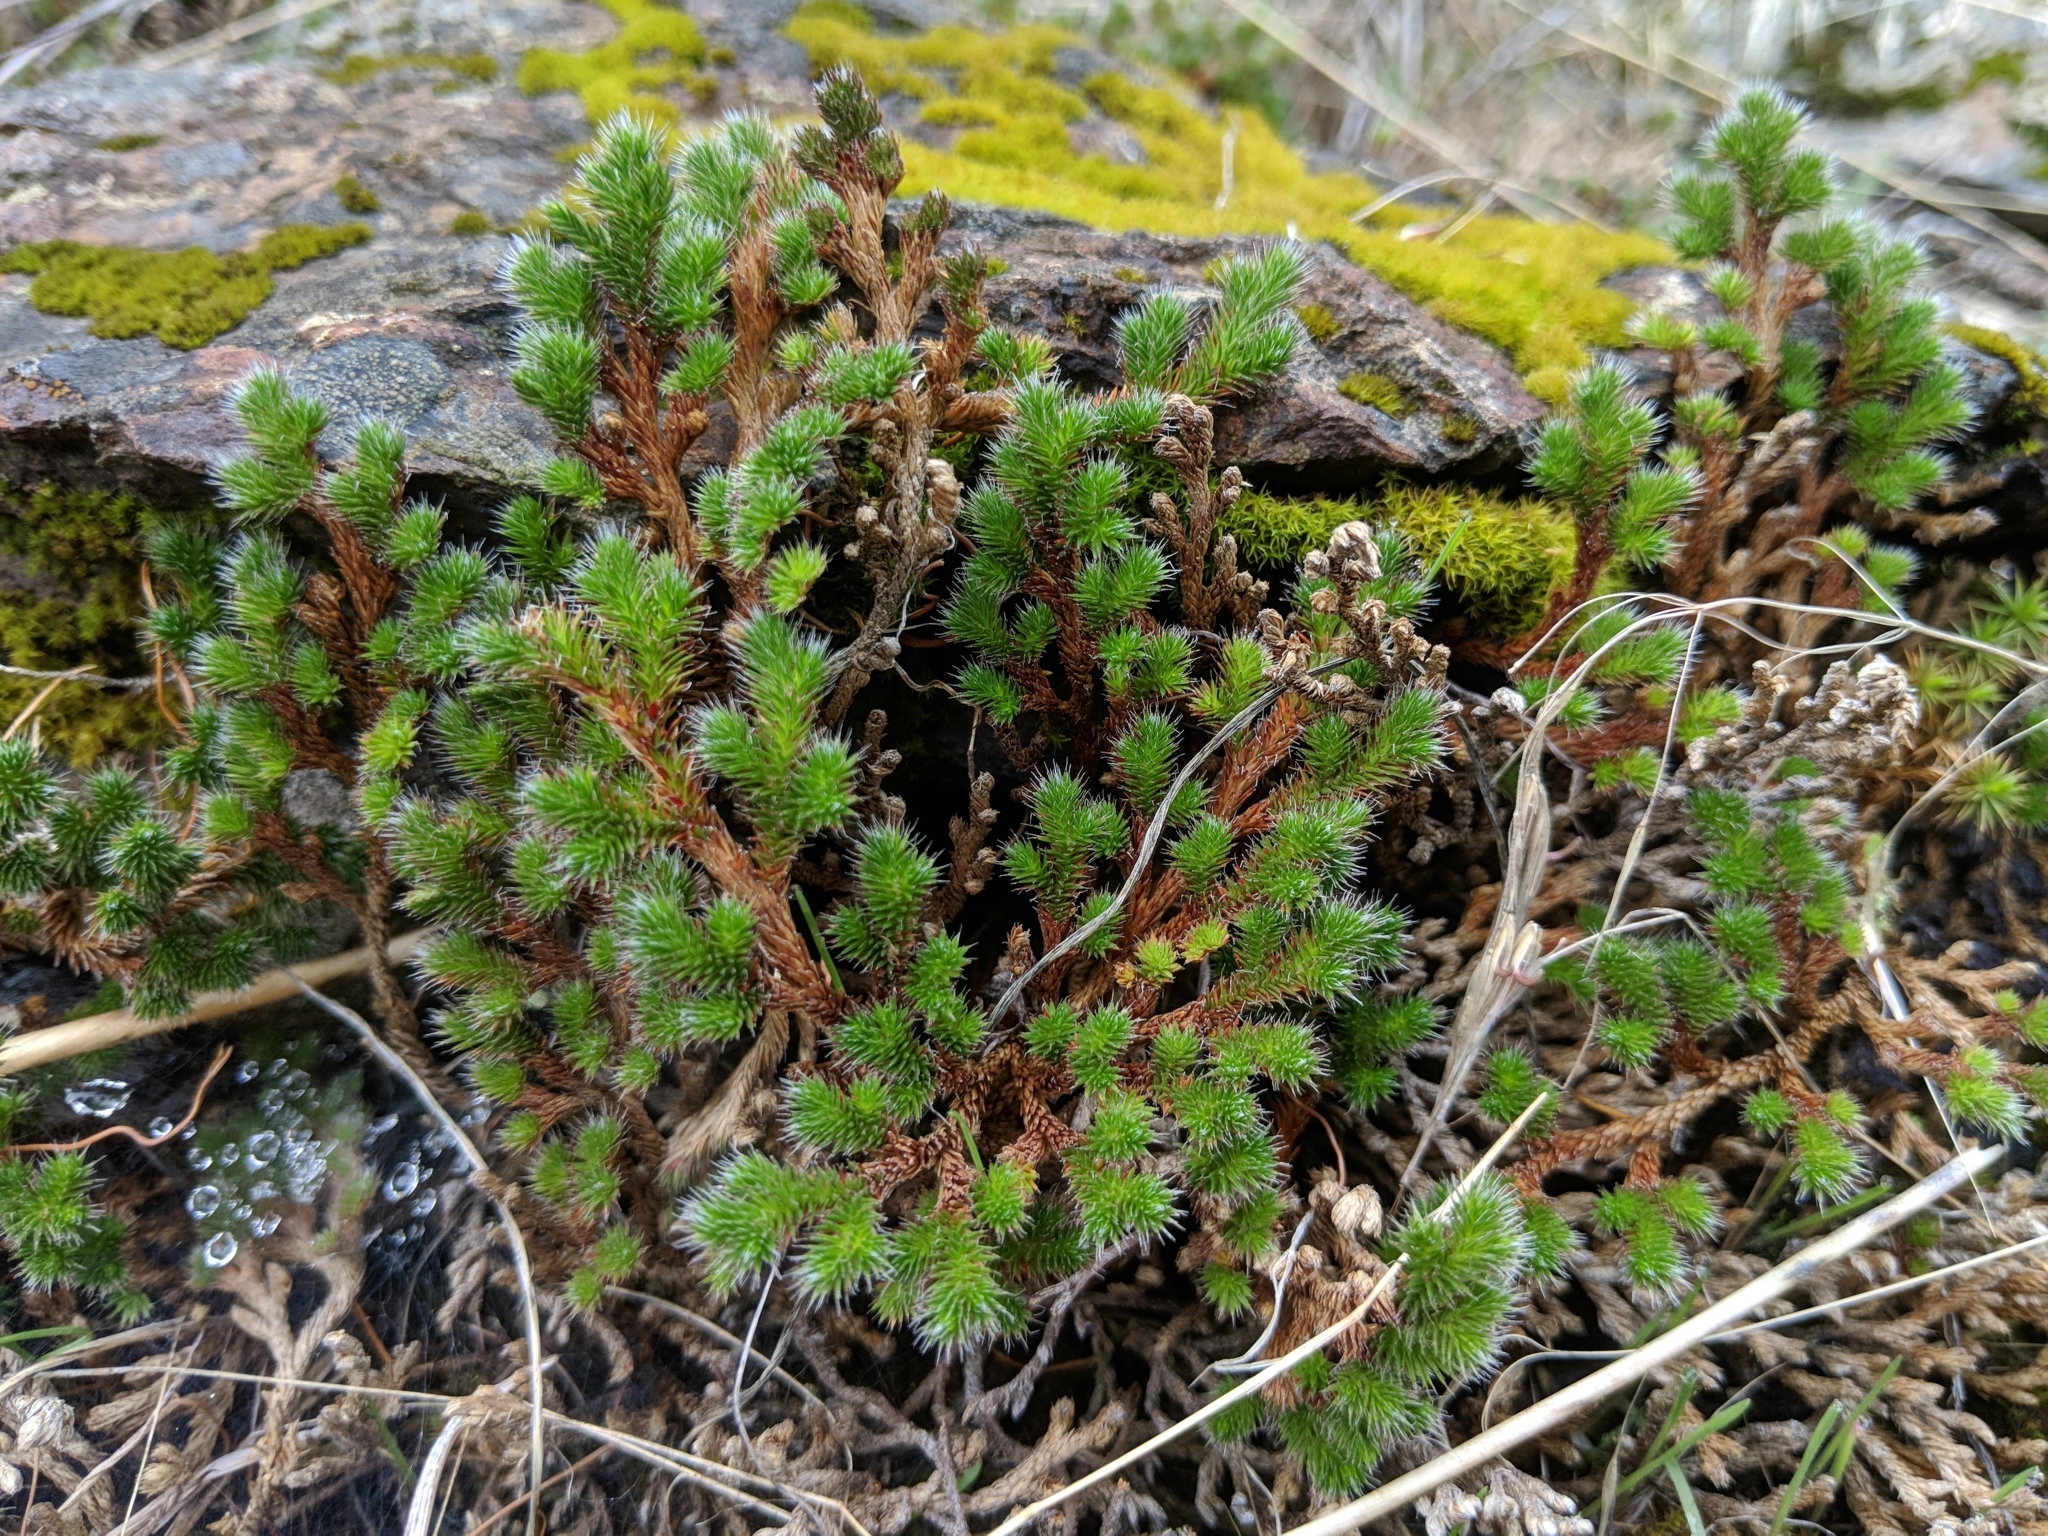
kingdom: Plantae
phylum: Tracheophyta
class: Lycopodiopsida
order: Selaginellales
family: Selaginellaceae
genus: Selaginella
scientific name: Selaginella hansenii
